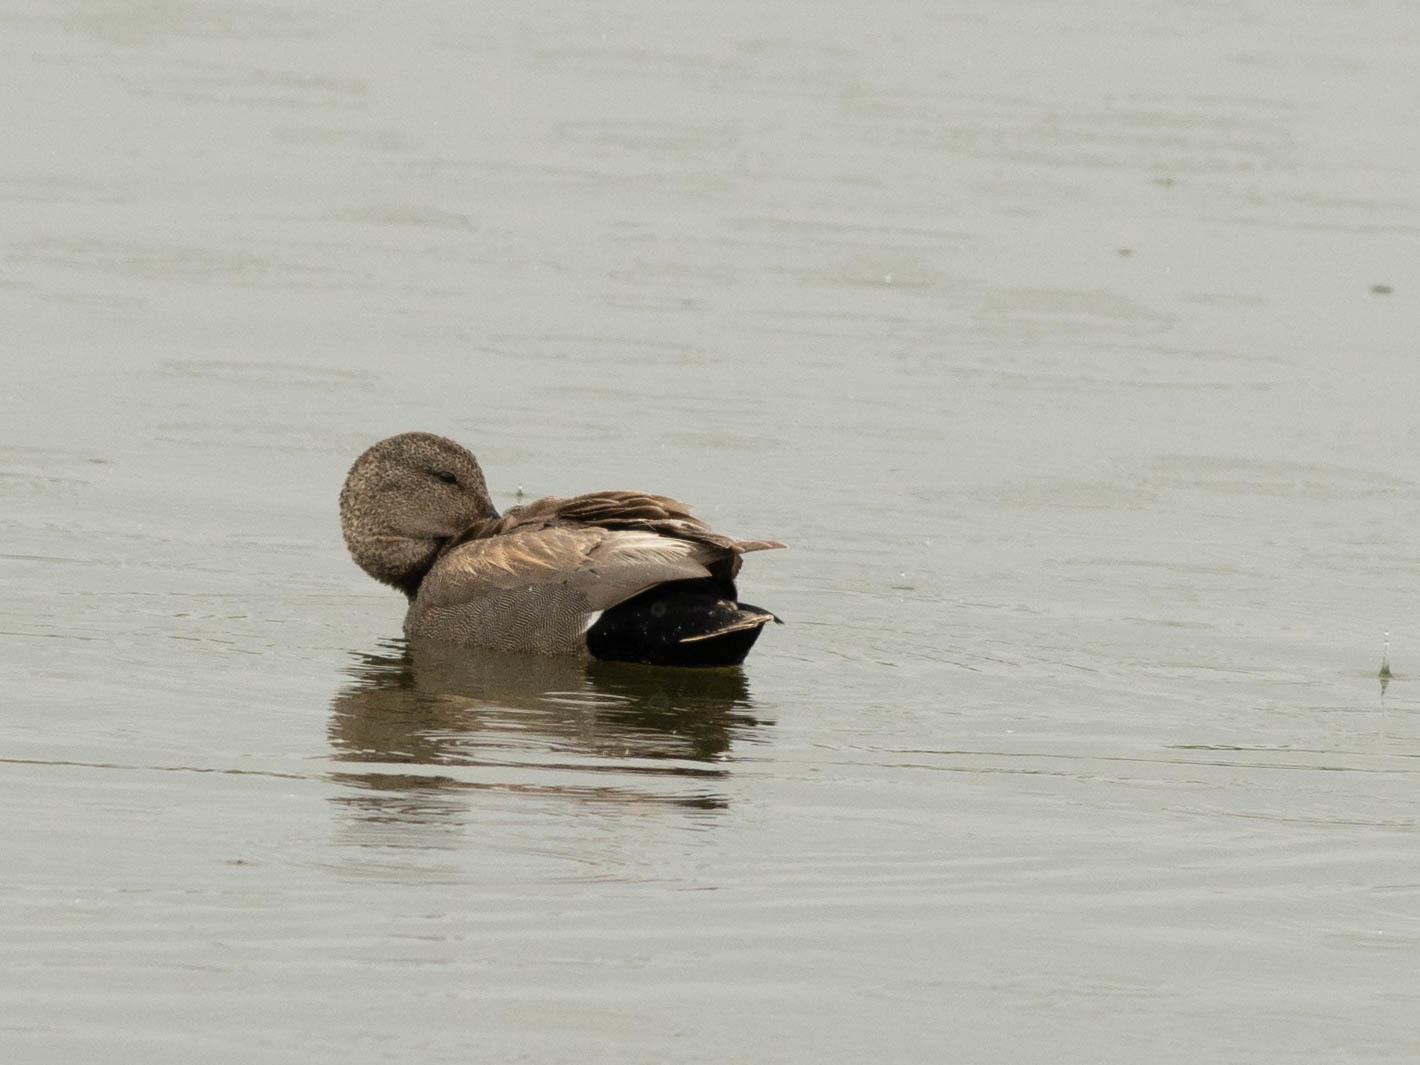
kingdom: Animalia
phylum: Chordata
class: Aves
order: Anseriformes
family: Anatidae
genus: Mareca
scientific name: Mareca strepera
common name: Gadwall
